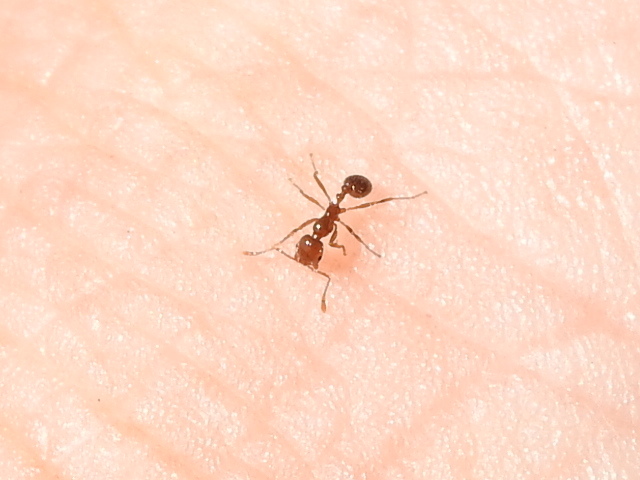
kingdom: Animalia
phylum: Arthropoda
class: Insecta
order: Hymenoptera
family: Formicidae
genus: Solenopsis
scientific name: Solenopsis invicta
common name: Red imported fire ant
